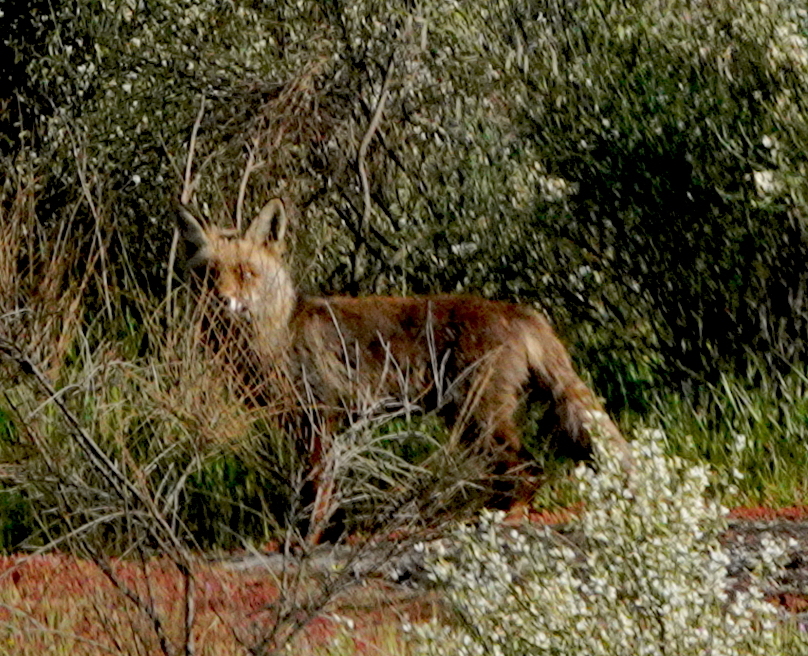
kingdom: Animalia
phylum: Chordata
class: Mammalia
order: Carnivora
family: Canidae
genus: Vulpes
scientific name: Vulpes vulpes
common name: Red fox
